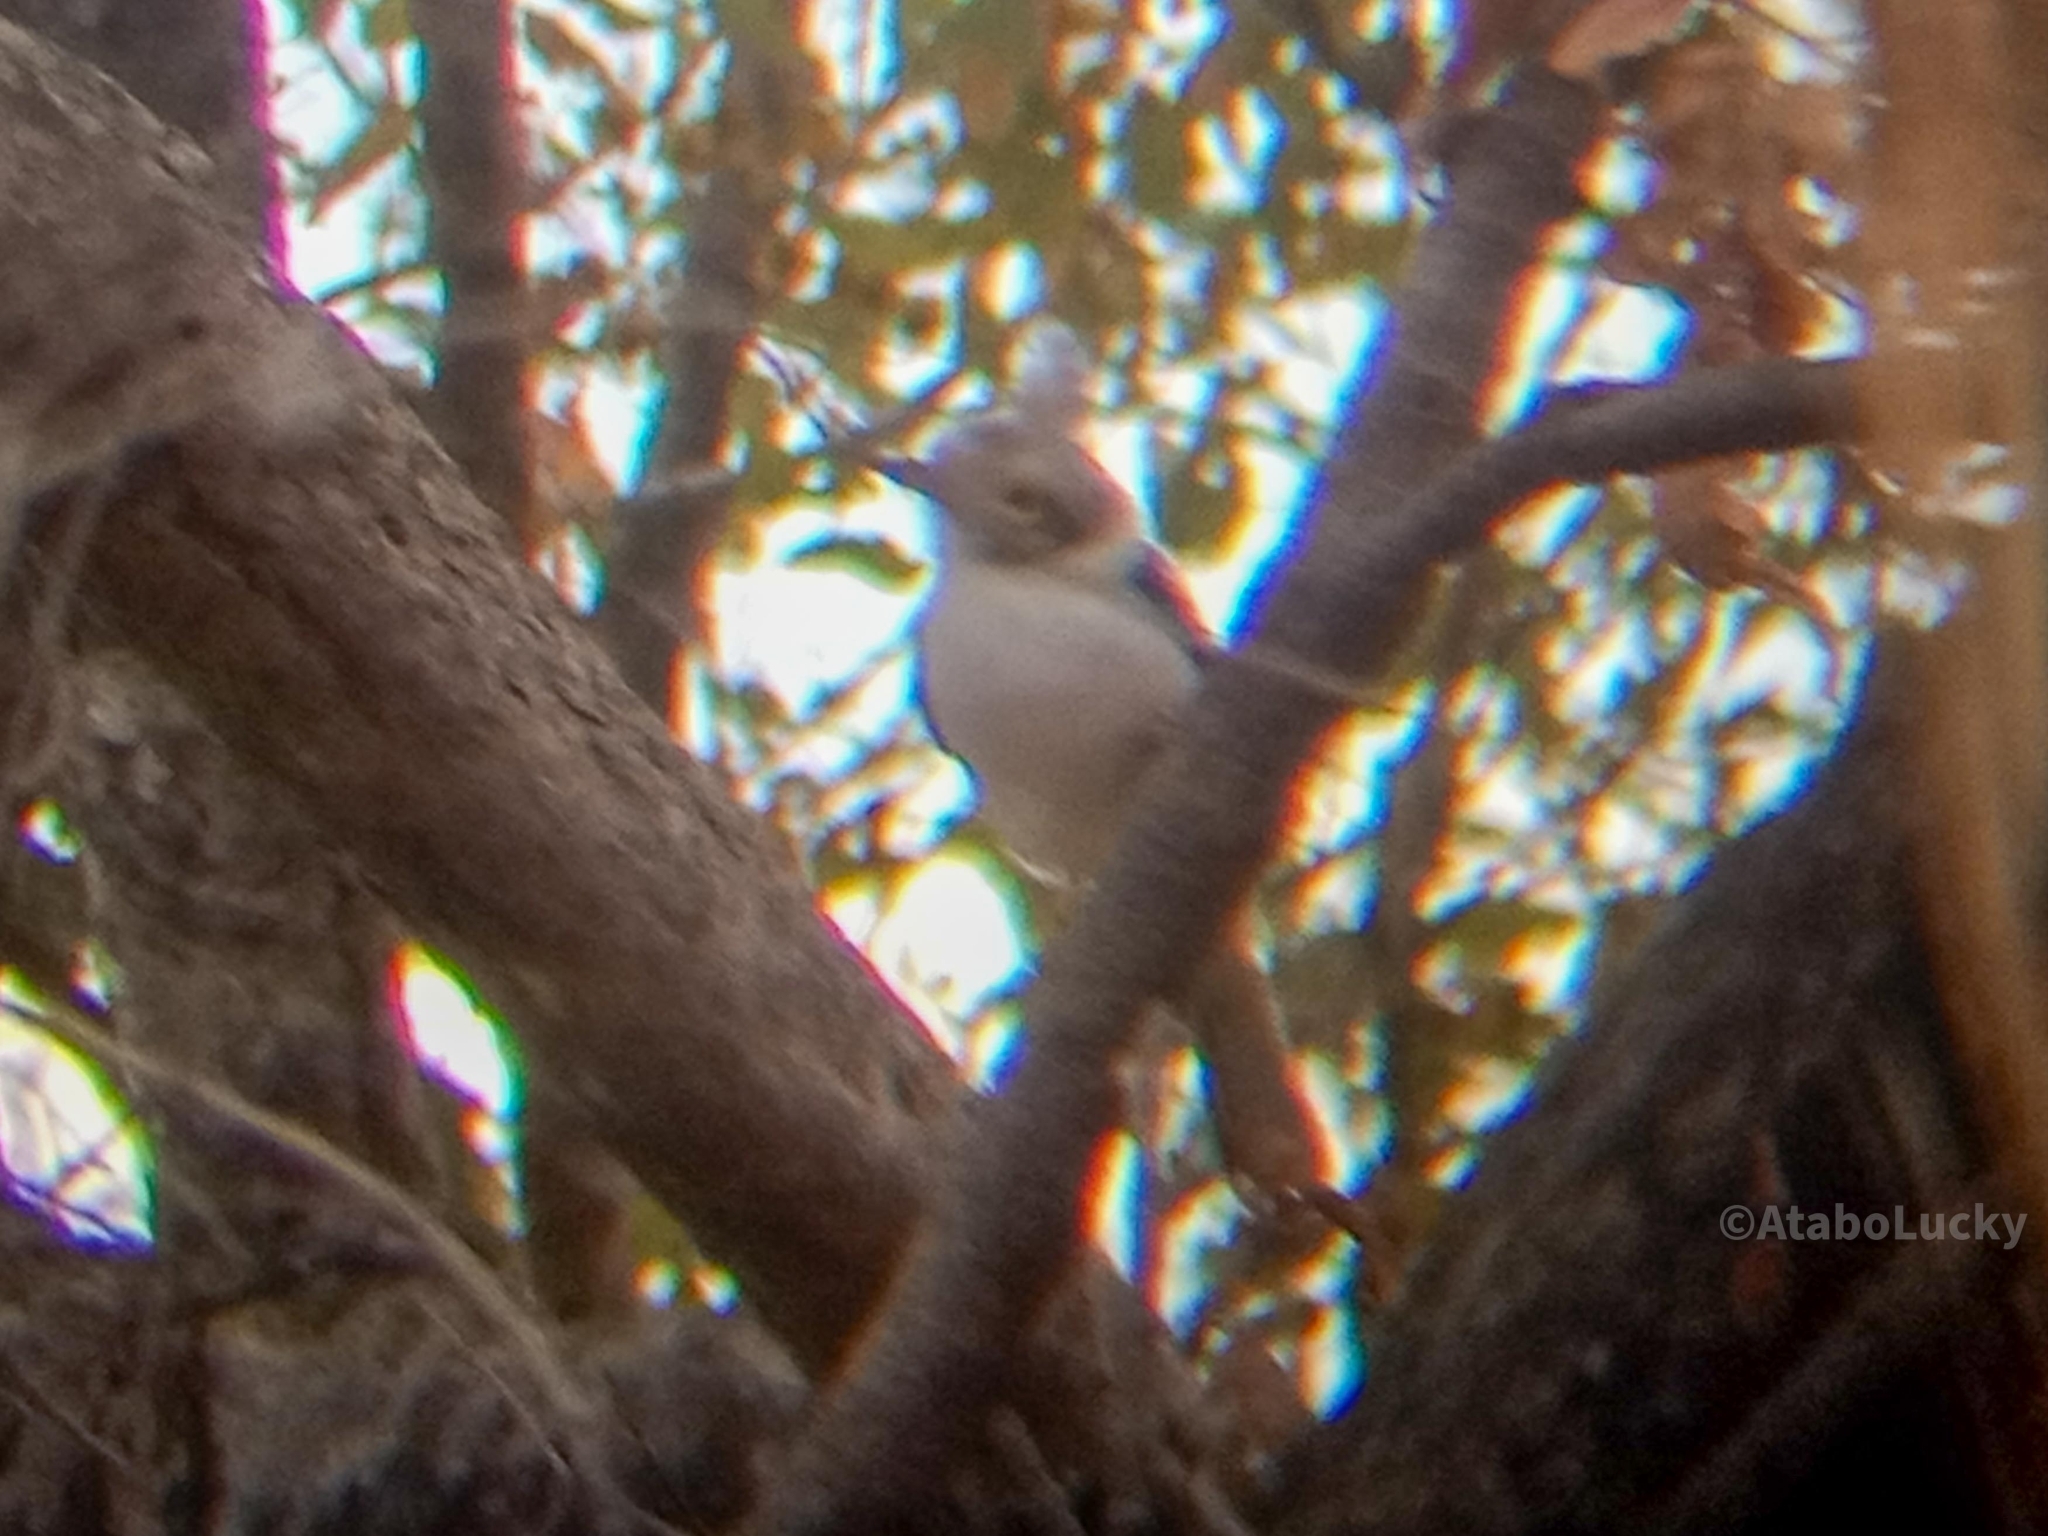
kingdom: Animalia
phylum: Chordata
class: Aves
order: Passeriformes
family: Prionopidae
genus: Prionops
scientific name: Prionops plumatus
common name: White-crested helmetshrike
